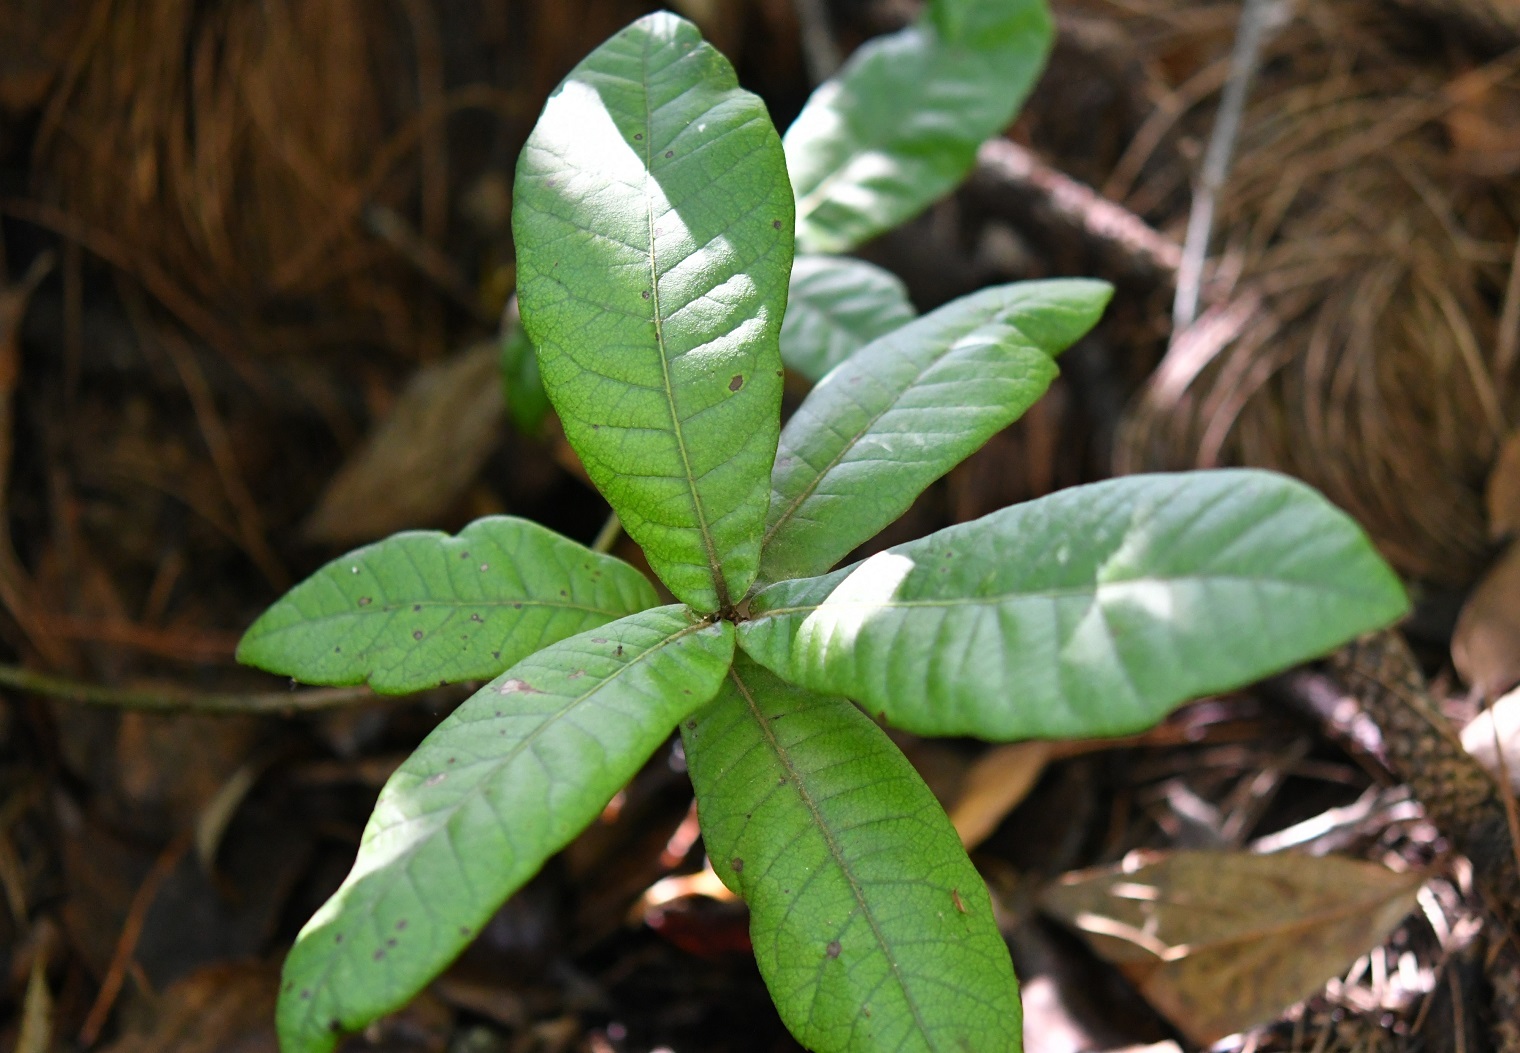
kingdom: Plantae
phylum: Tracheophyta
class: Magnoliopsida
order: Fagales
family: Fagaceae
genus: Quercus
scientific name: Quercus dysophylla
